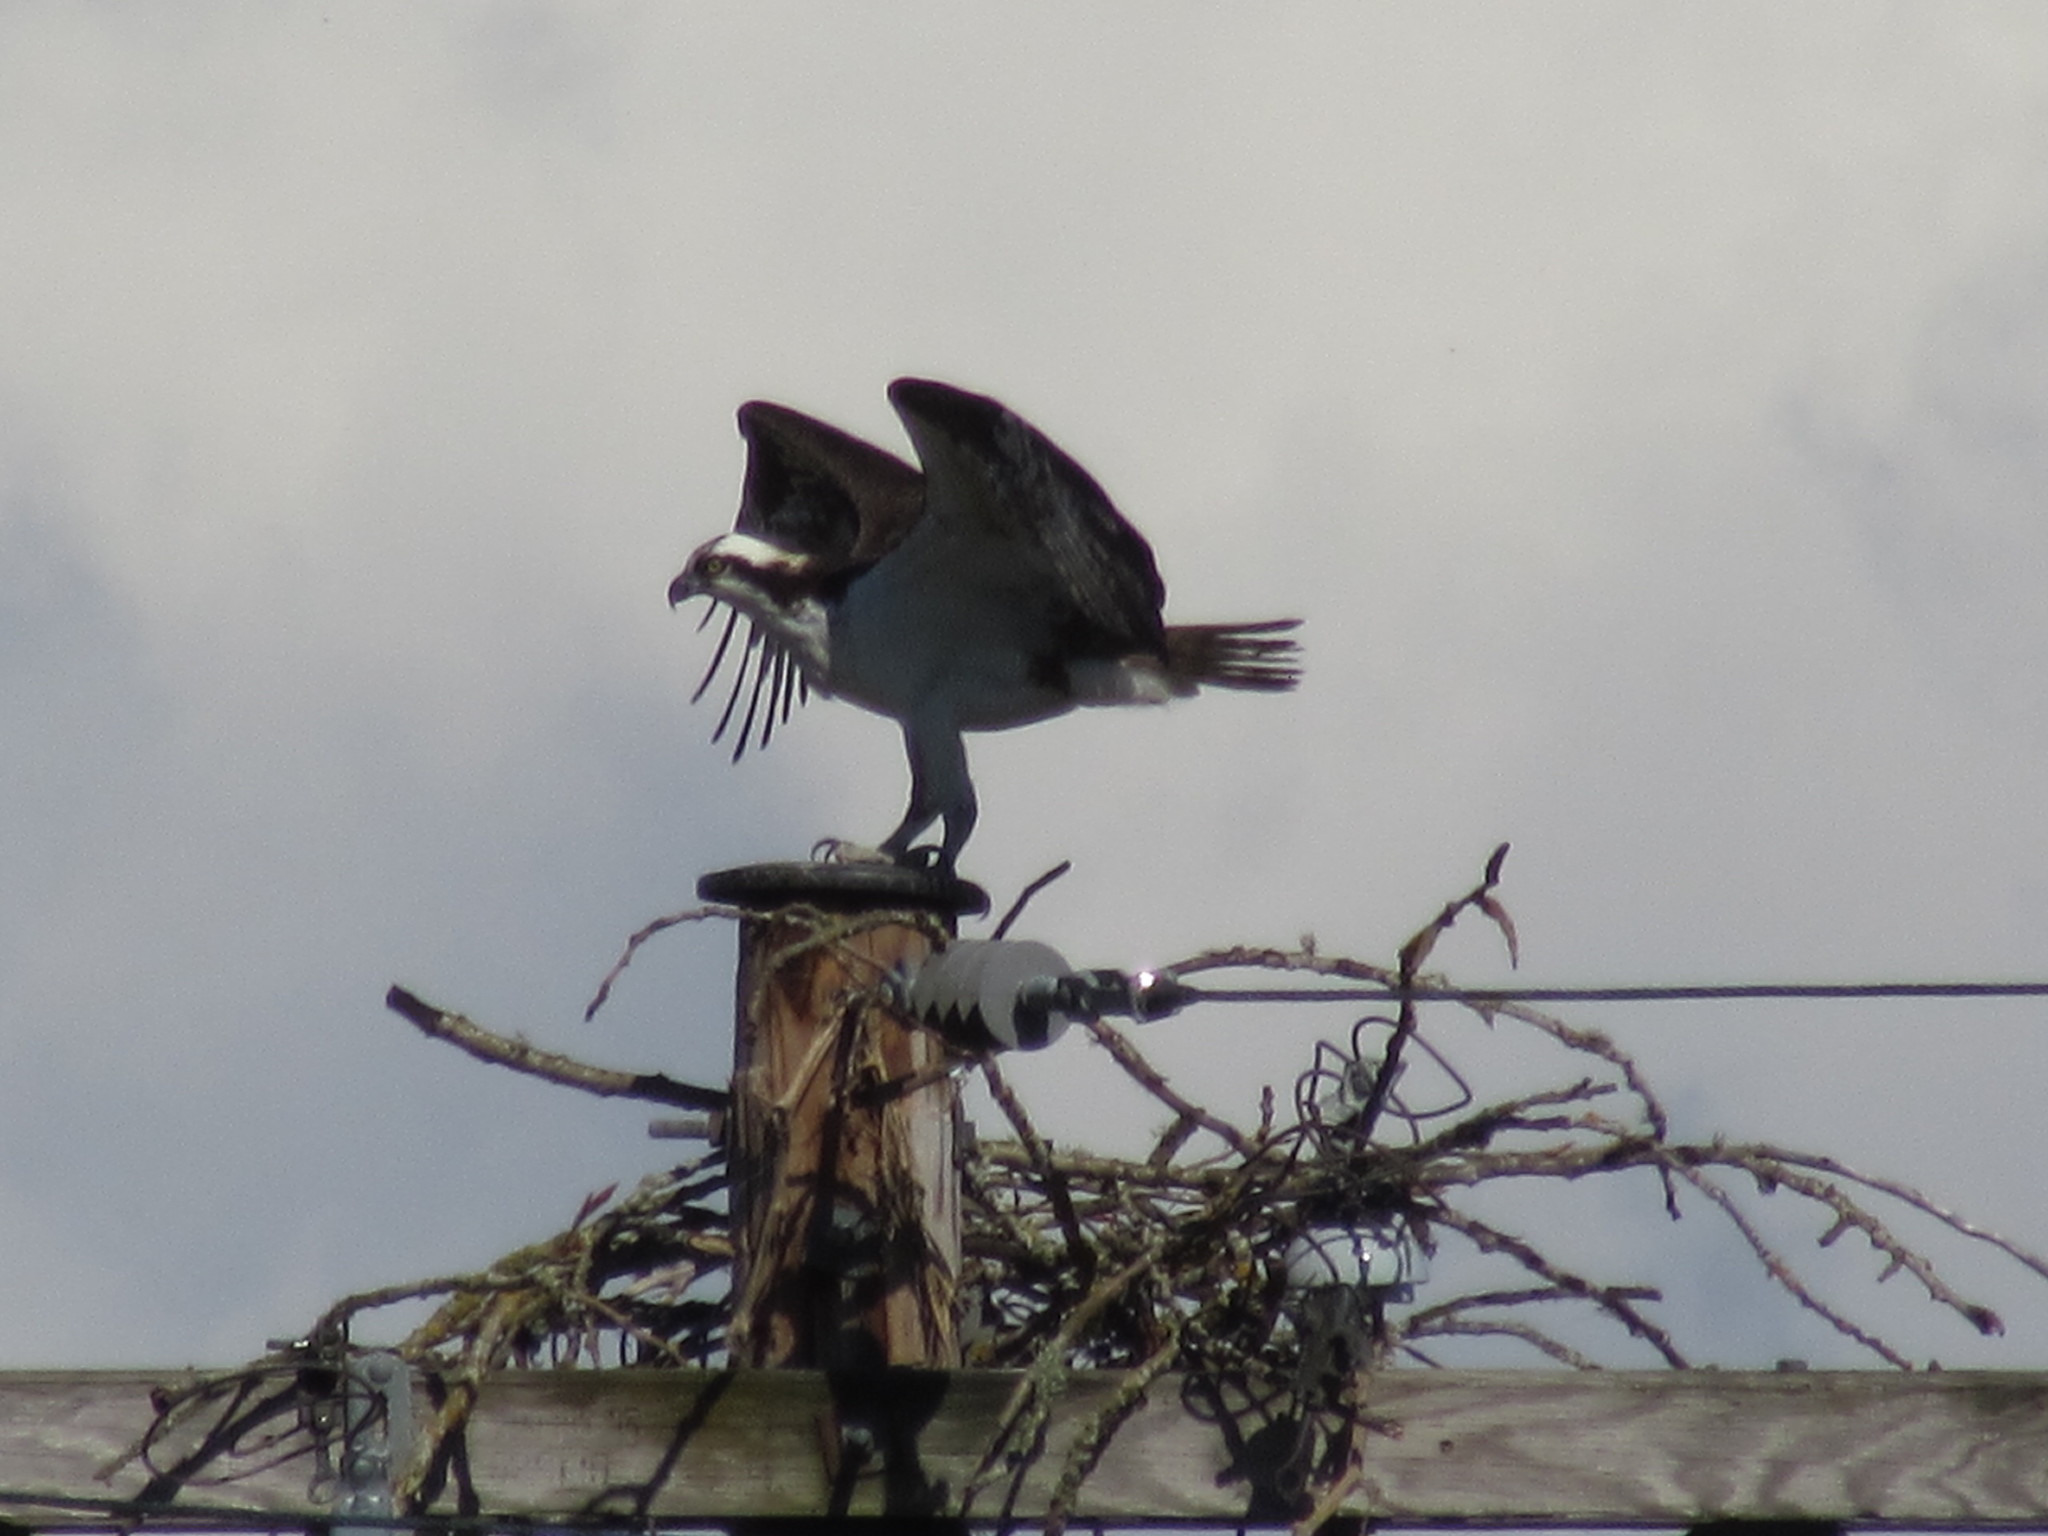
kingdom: Animalia
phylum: Chordata
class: Aves
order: Accipitriformes
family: Pandionidae
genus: Pandion
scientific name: Pandion haliaetus
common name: Osprey
